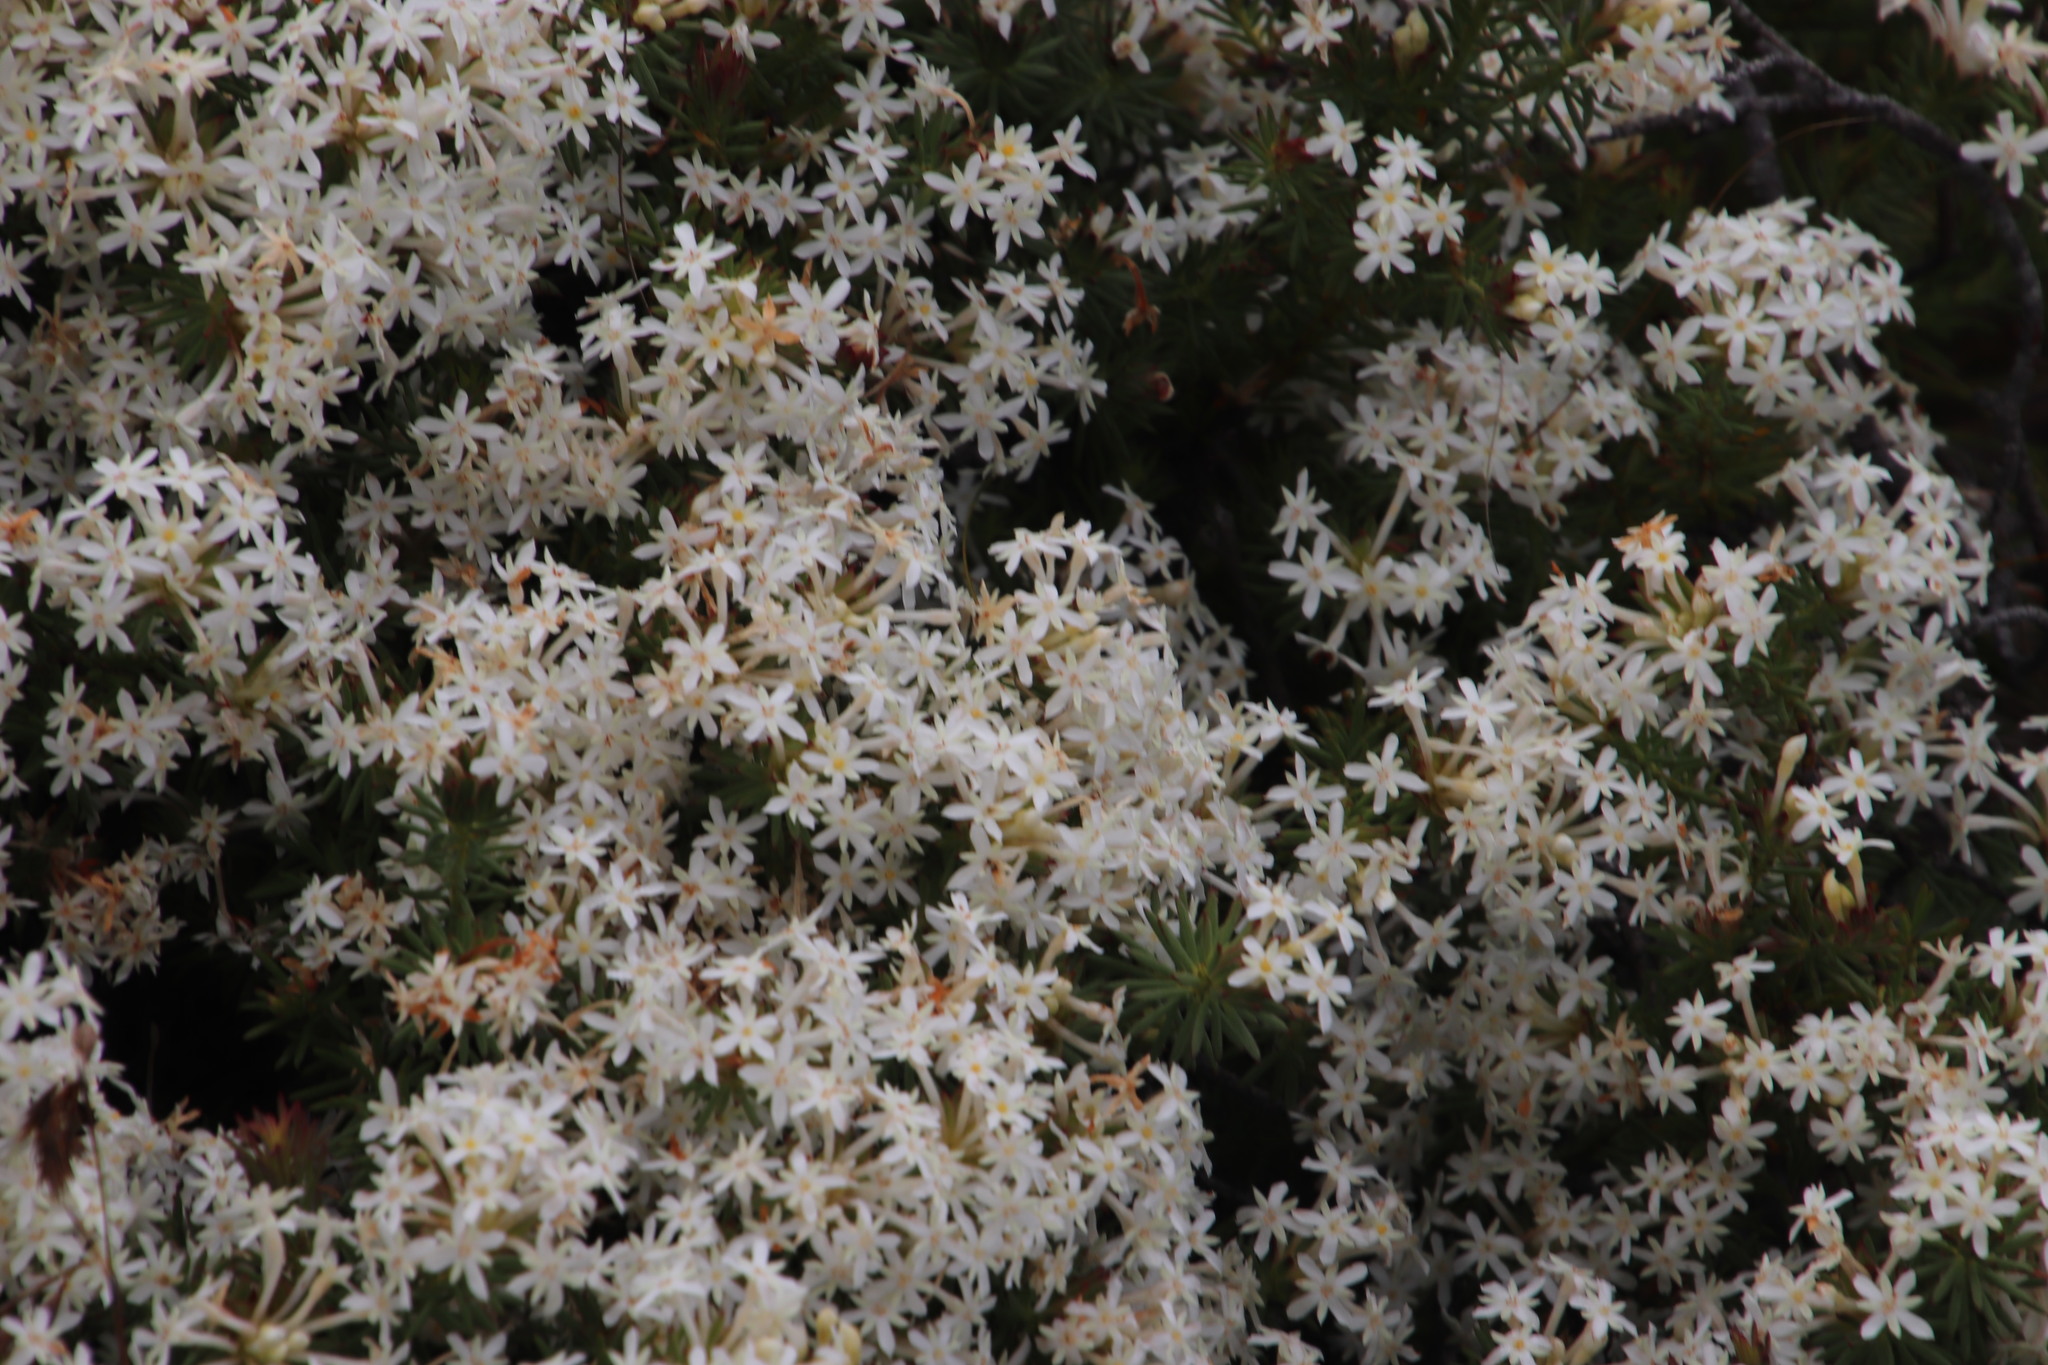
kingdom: Plantae
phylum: Tracheophyta
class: Magnoliopsida
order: Malvales
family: Thymelaeaceae
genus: Gnidia
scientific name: Gnidia pinifolia
